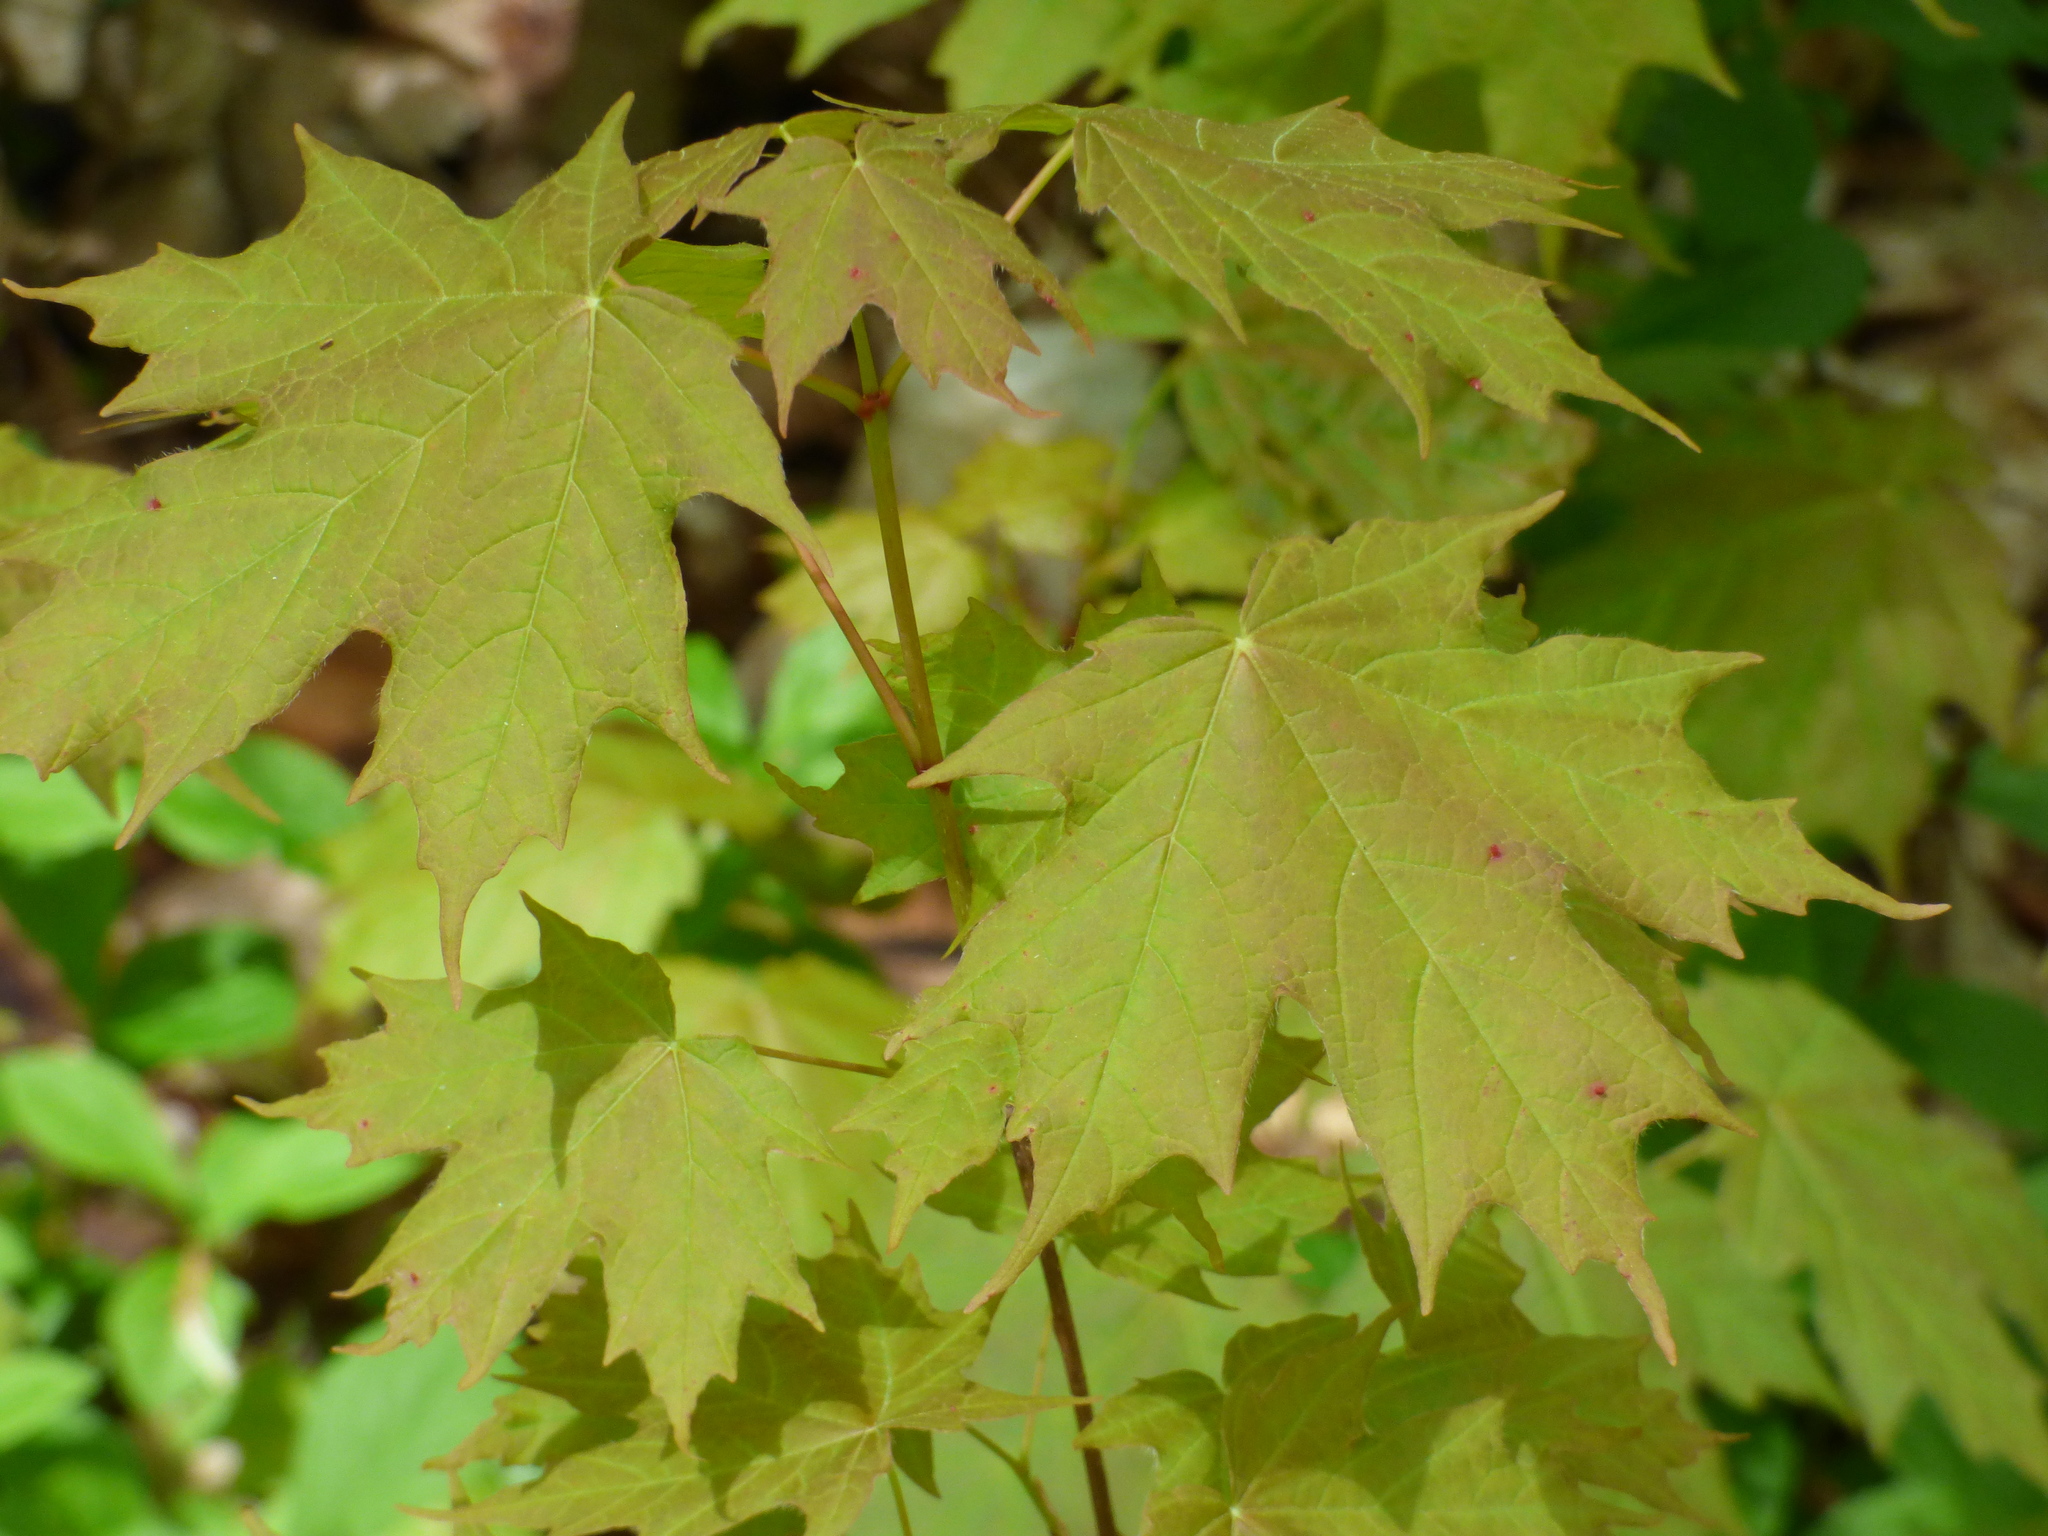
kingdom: Plantae
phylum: Tracheophyta
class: Magnoliopsida
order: Sapindales
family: Sapindaceae
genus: Acer
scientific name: Acer saccharum
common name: Sugar maple
